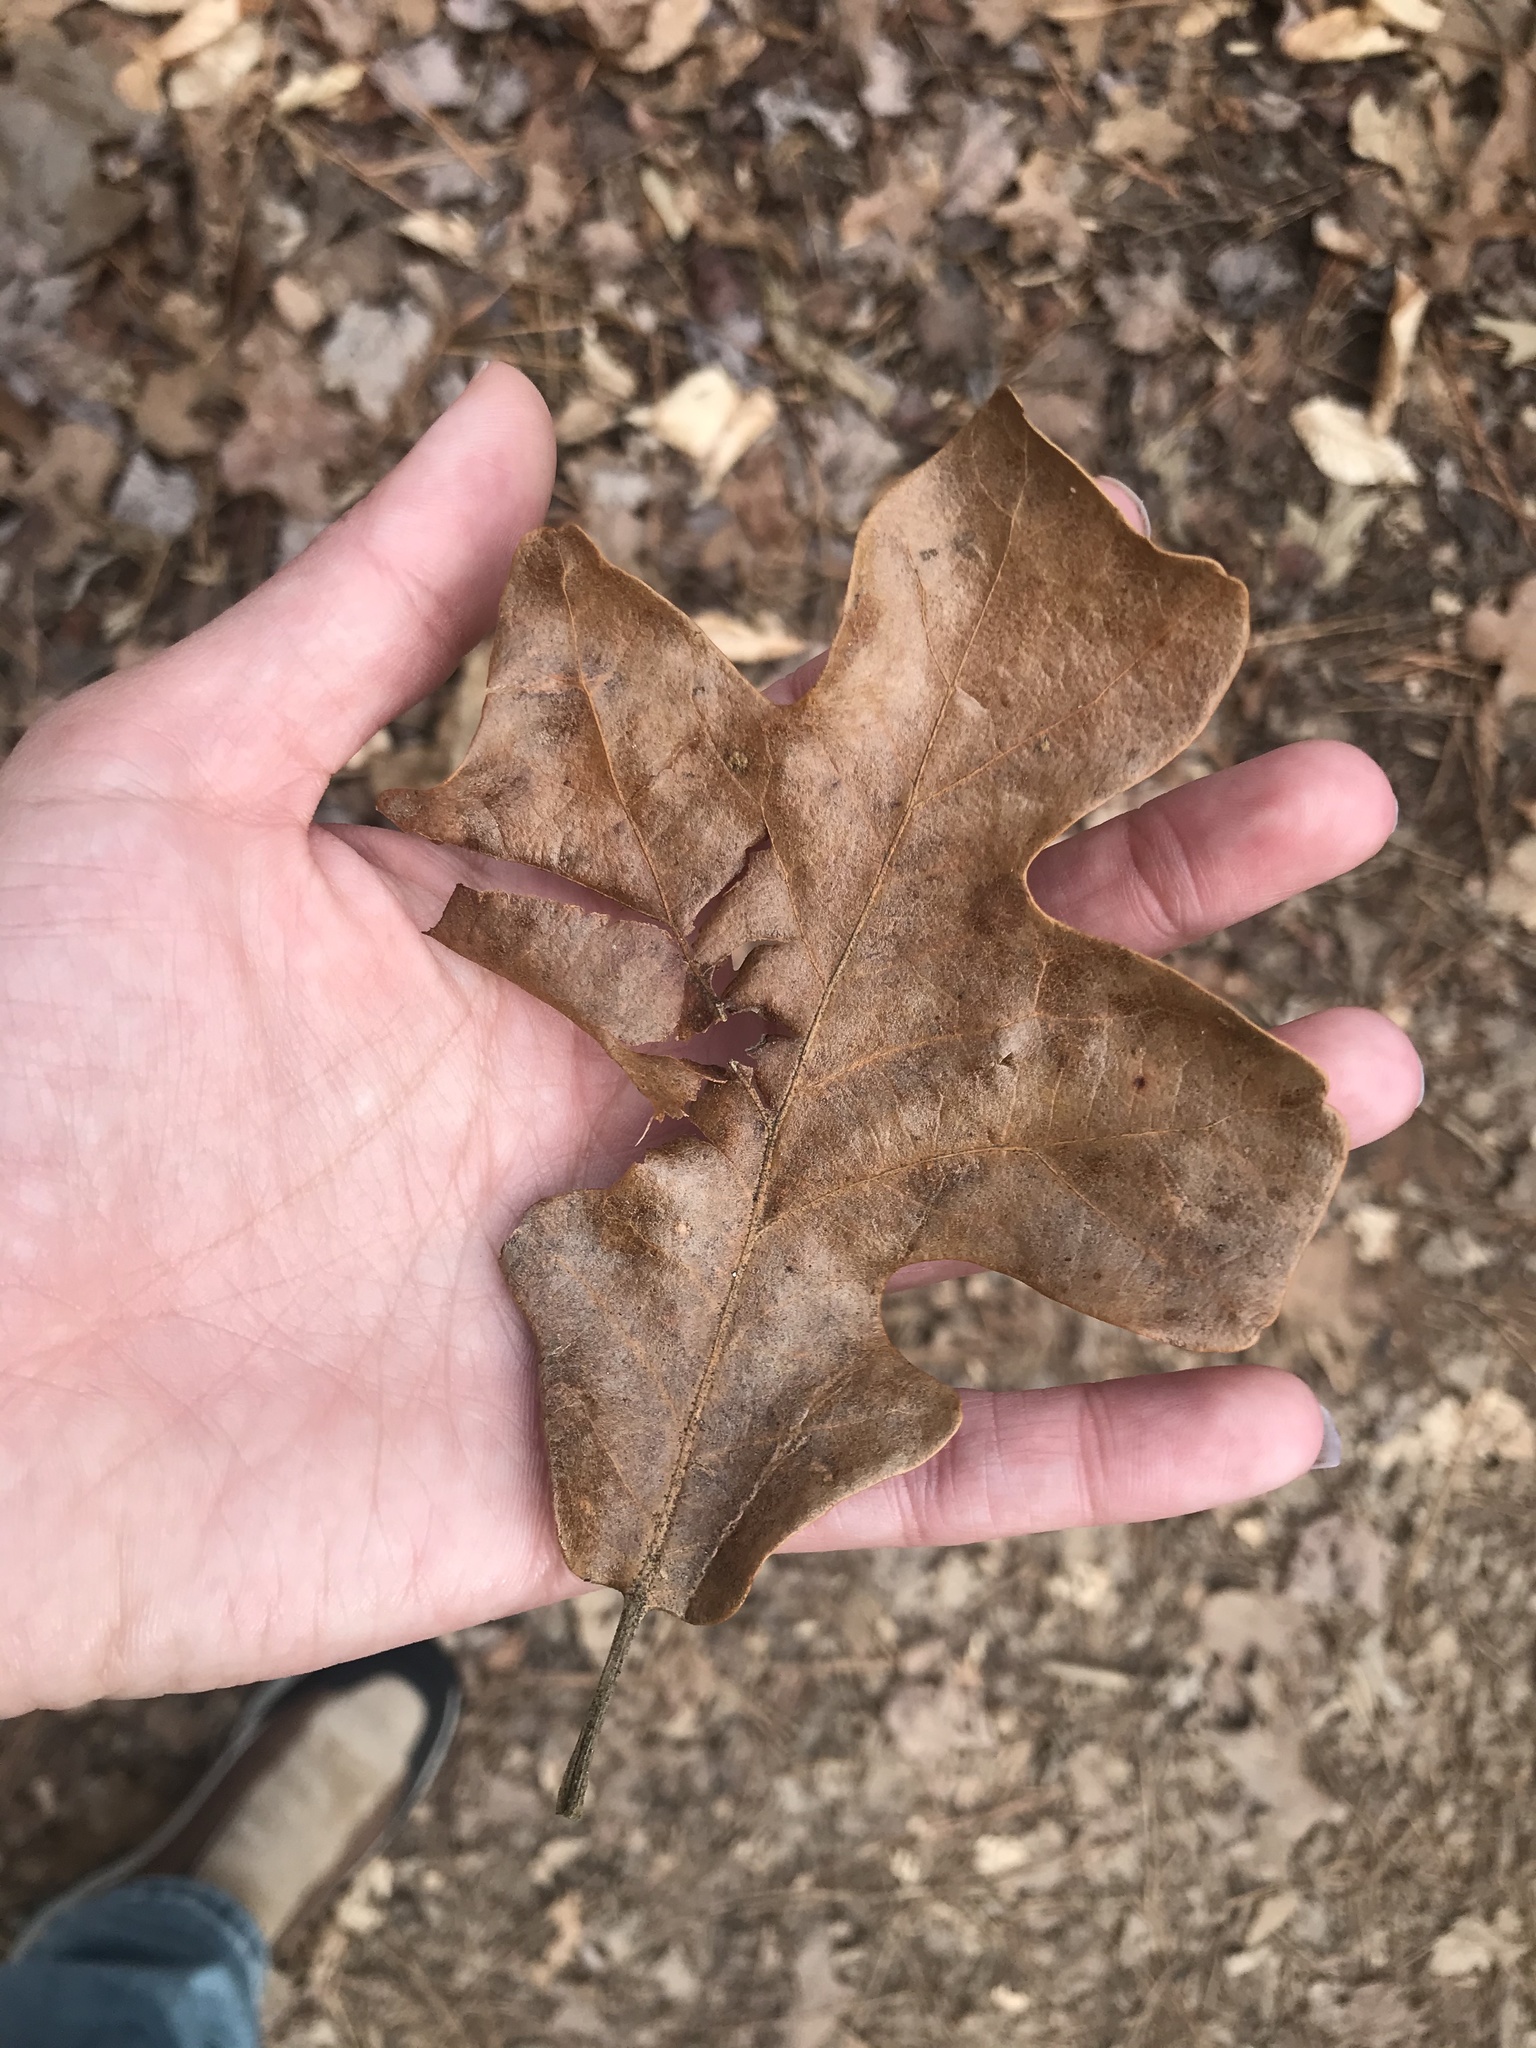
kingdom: Plantae
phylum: Tracheophyta
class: Magnoliopsida
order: Fagales
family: Fagaceae
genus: Quercus
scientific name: Quercus stellata
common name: Post oak
